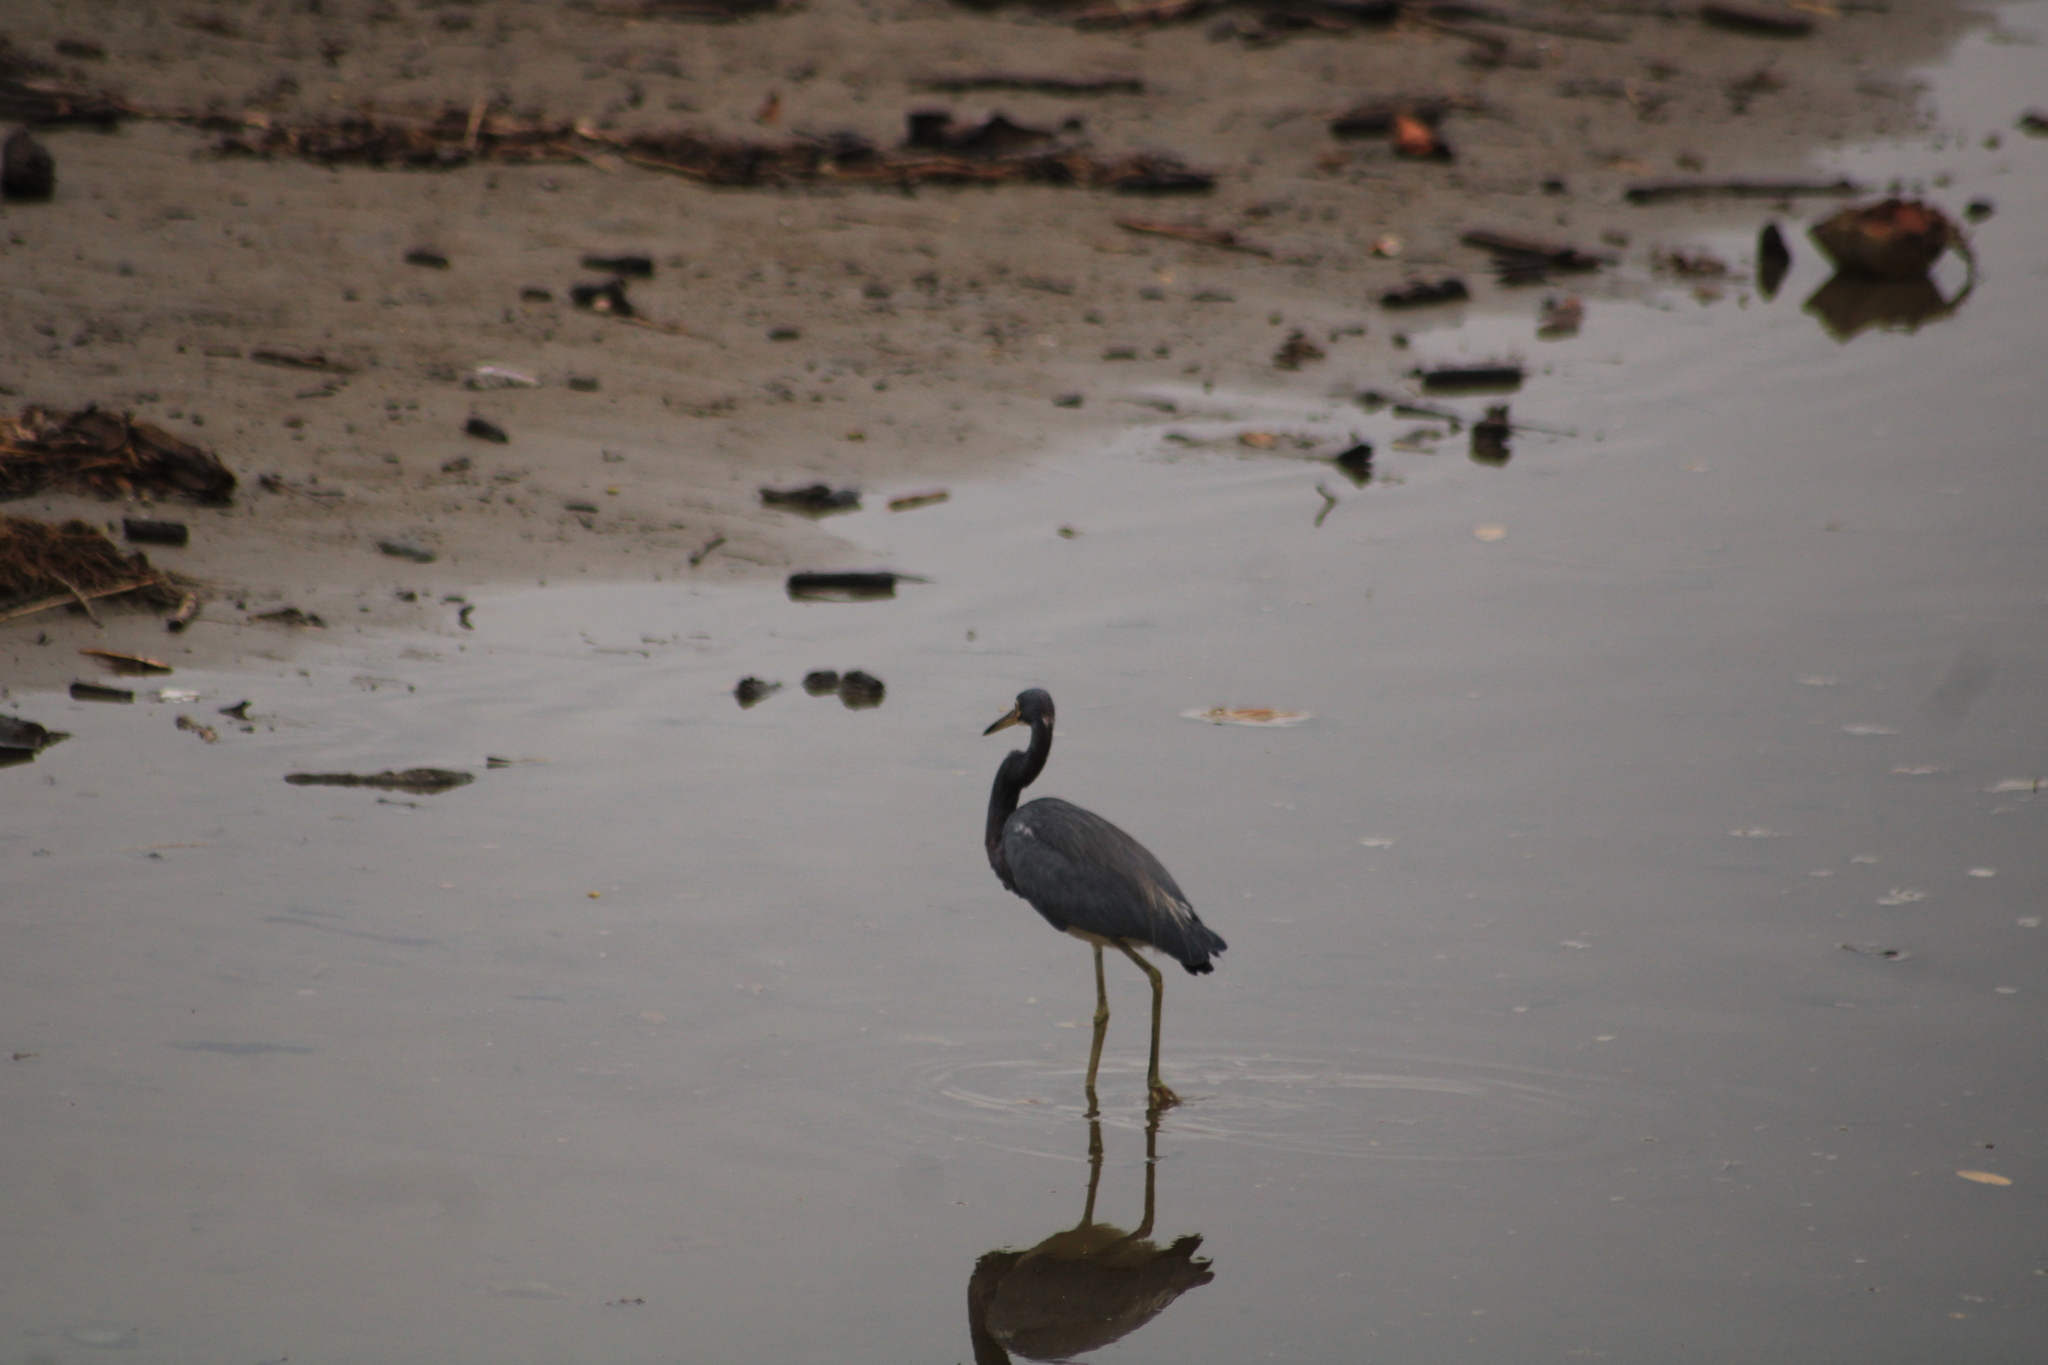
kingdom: Animalia
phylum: Chordata
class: Aves
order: Pelecaniformes
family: Ardeidae
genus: Egretta
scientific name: Egretta tricolor
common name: Tricolored heron
